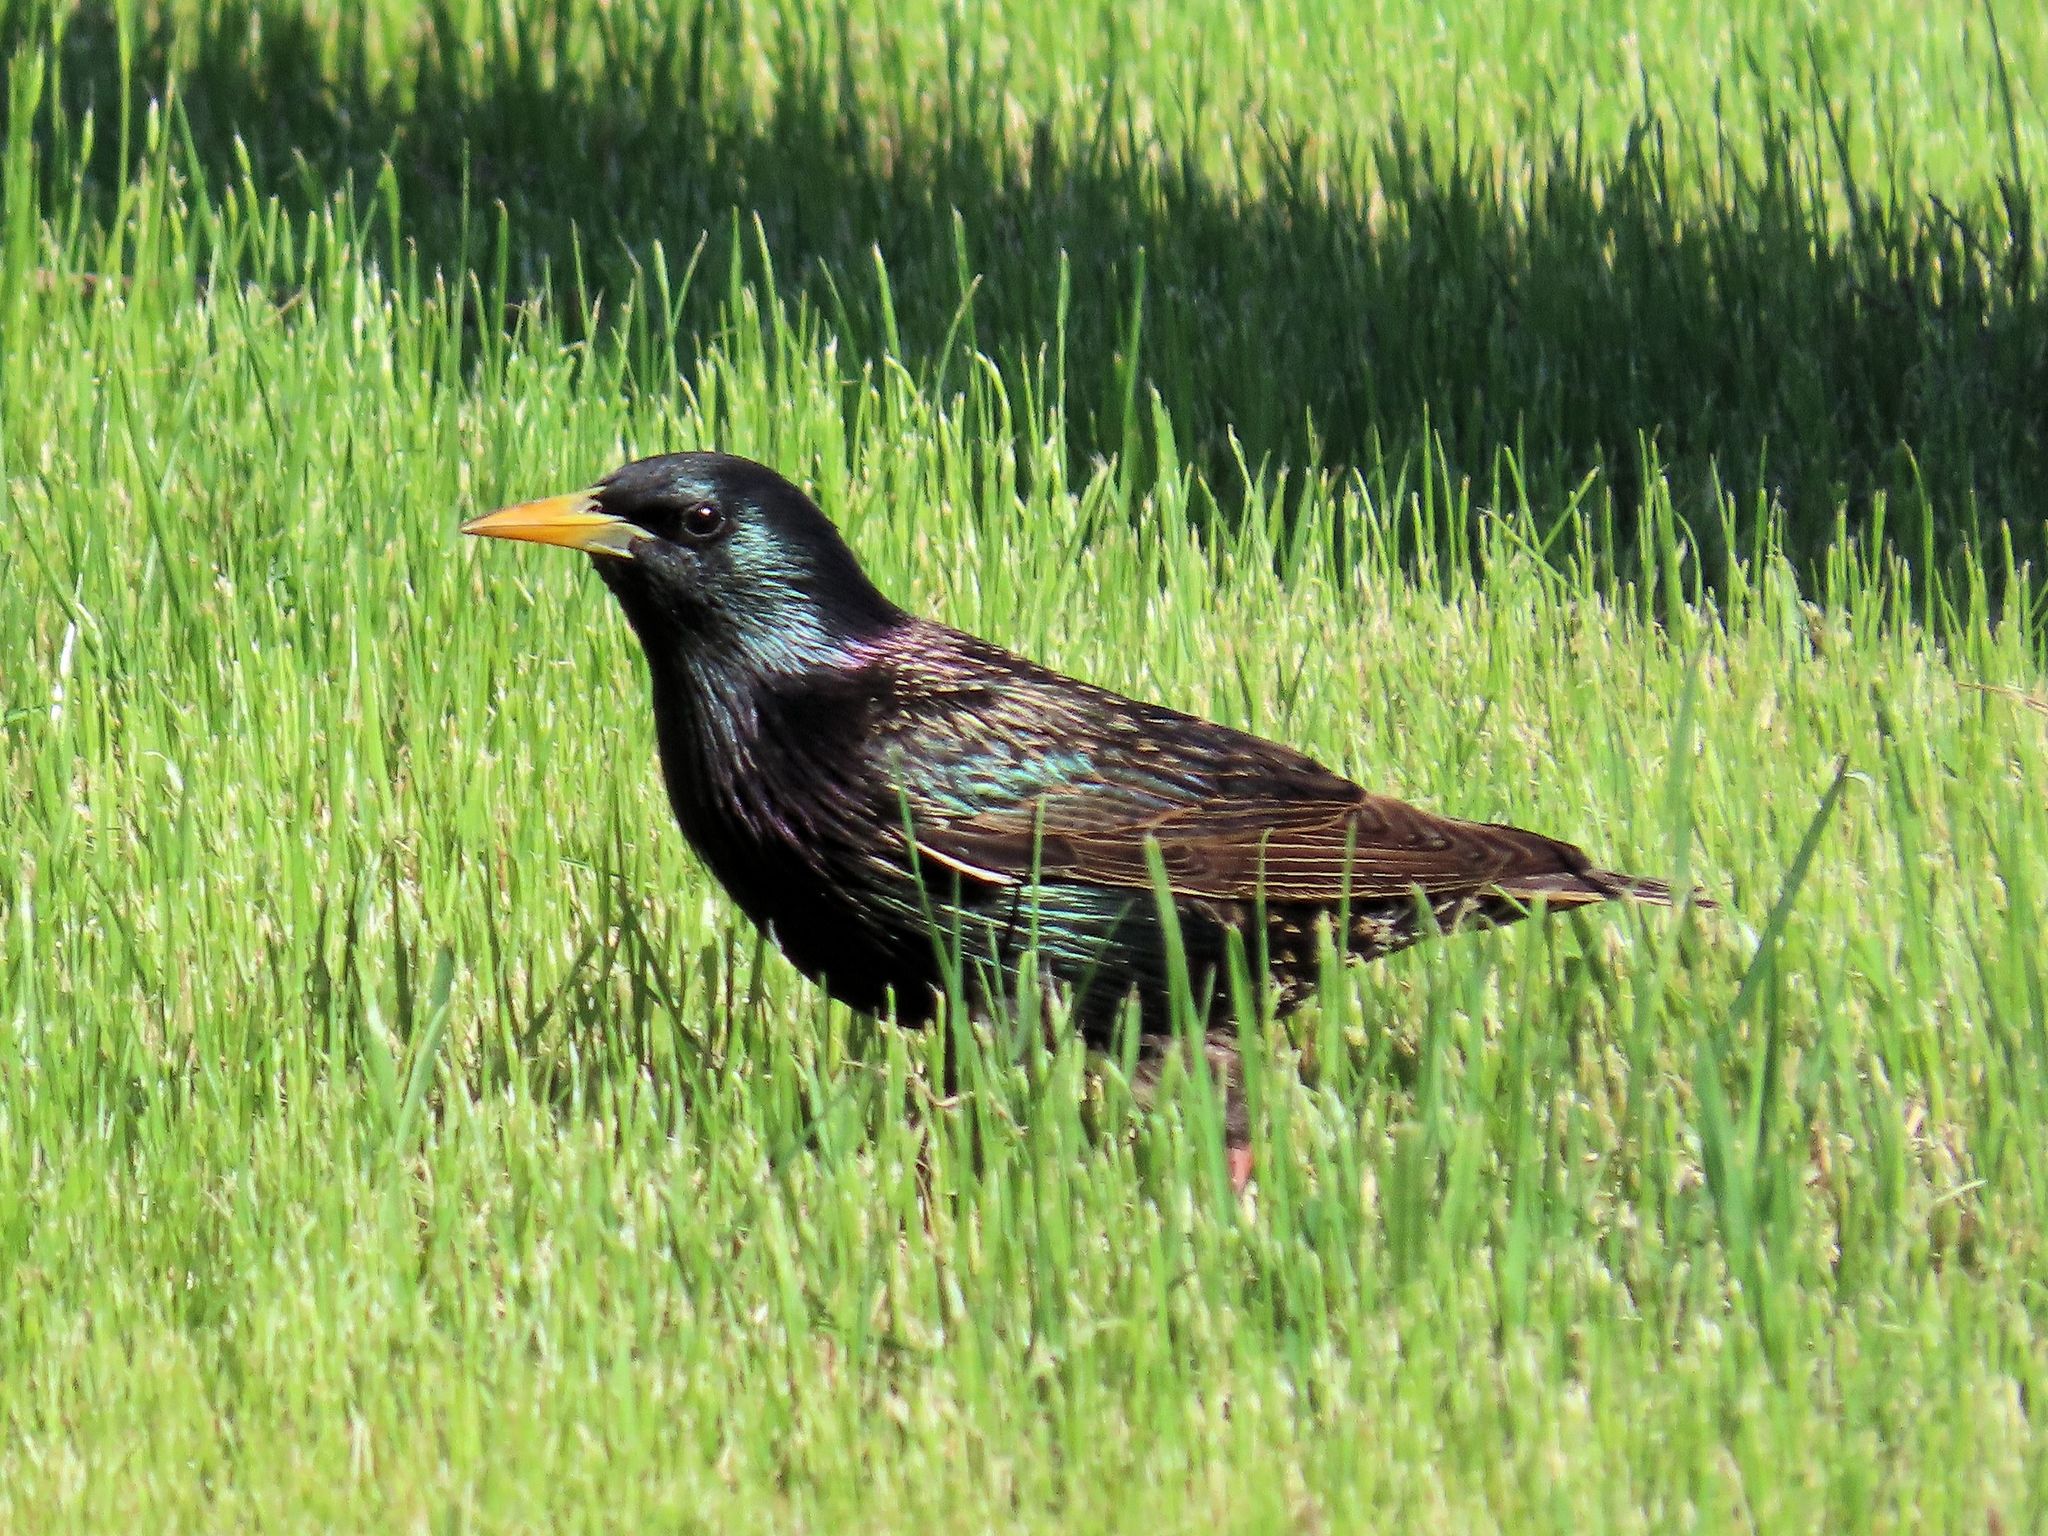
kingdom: Animalia
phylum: Chordata
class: Aves
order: Passeriformes
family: Sturnidae
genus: Sturnus
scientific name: Sturnus vulgaris
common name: Common starling
